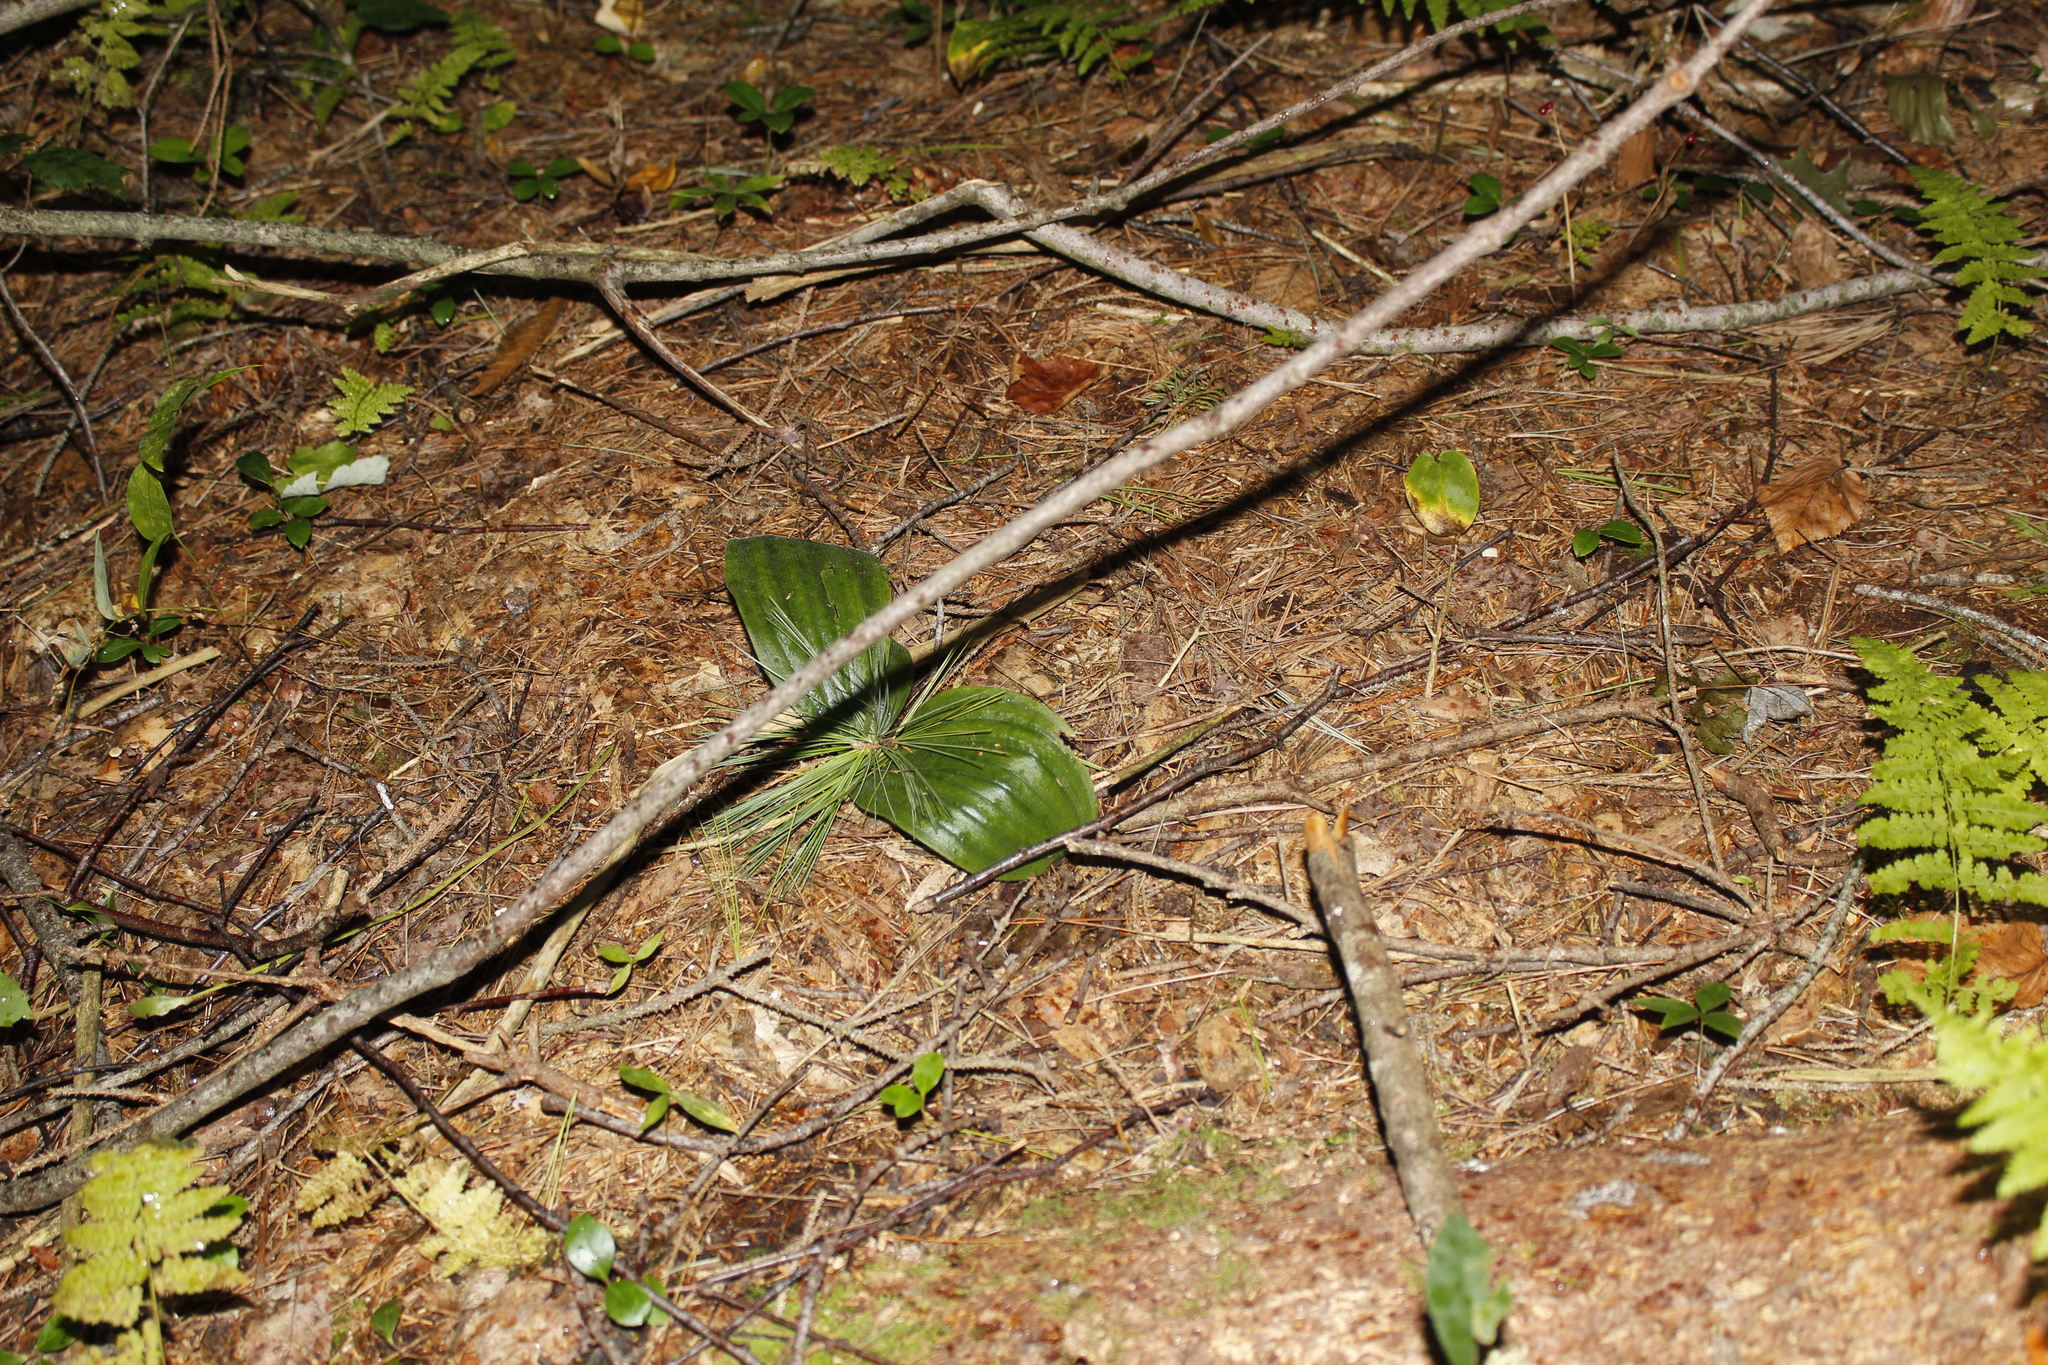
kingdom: Plantae
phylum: Tracheophyta
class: Liliopsida
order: Asparagales
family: Orchidaceae
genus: Cypripedium
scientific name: Cypripedium acaule
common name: Pink lady's-slipper
